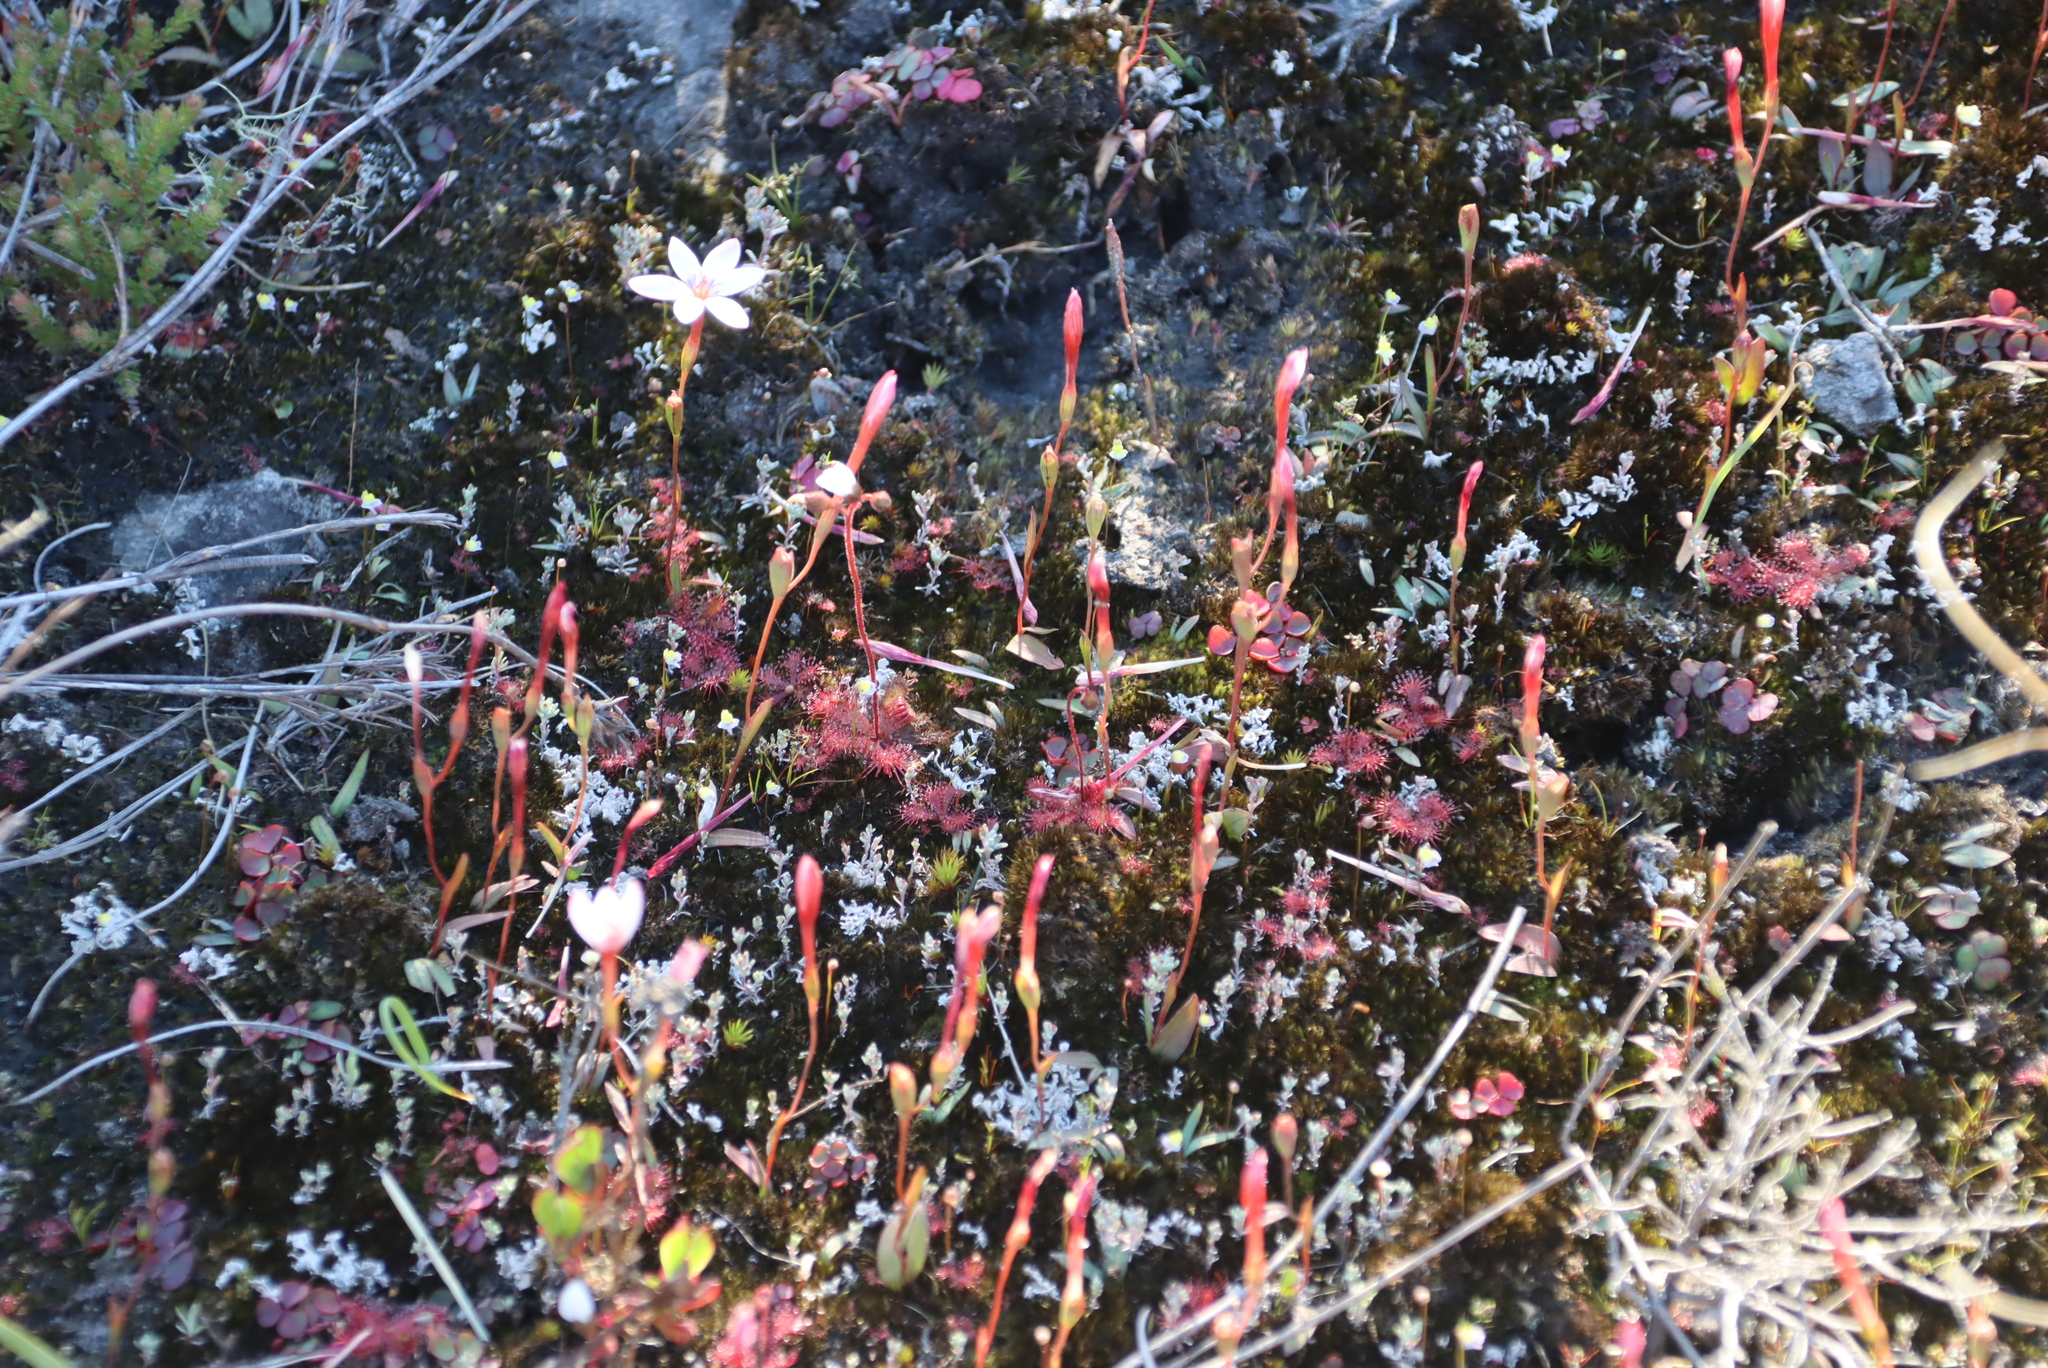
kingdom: Plantae
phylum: Tracheophyta
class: Magnoliopsida
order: Oxalidales
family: Oxalidaceae
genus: Oxalis
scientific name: Oxalis commutata
